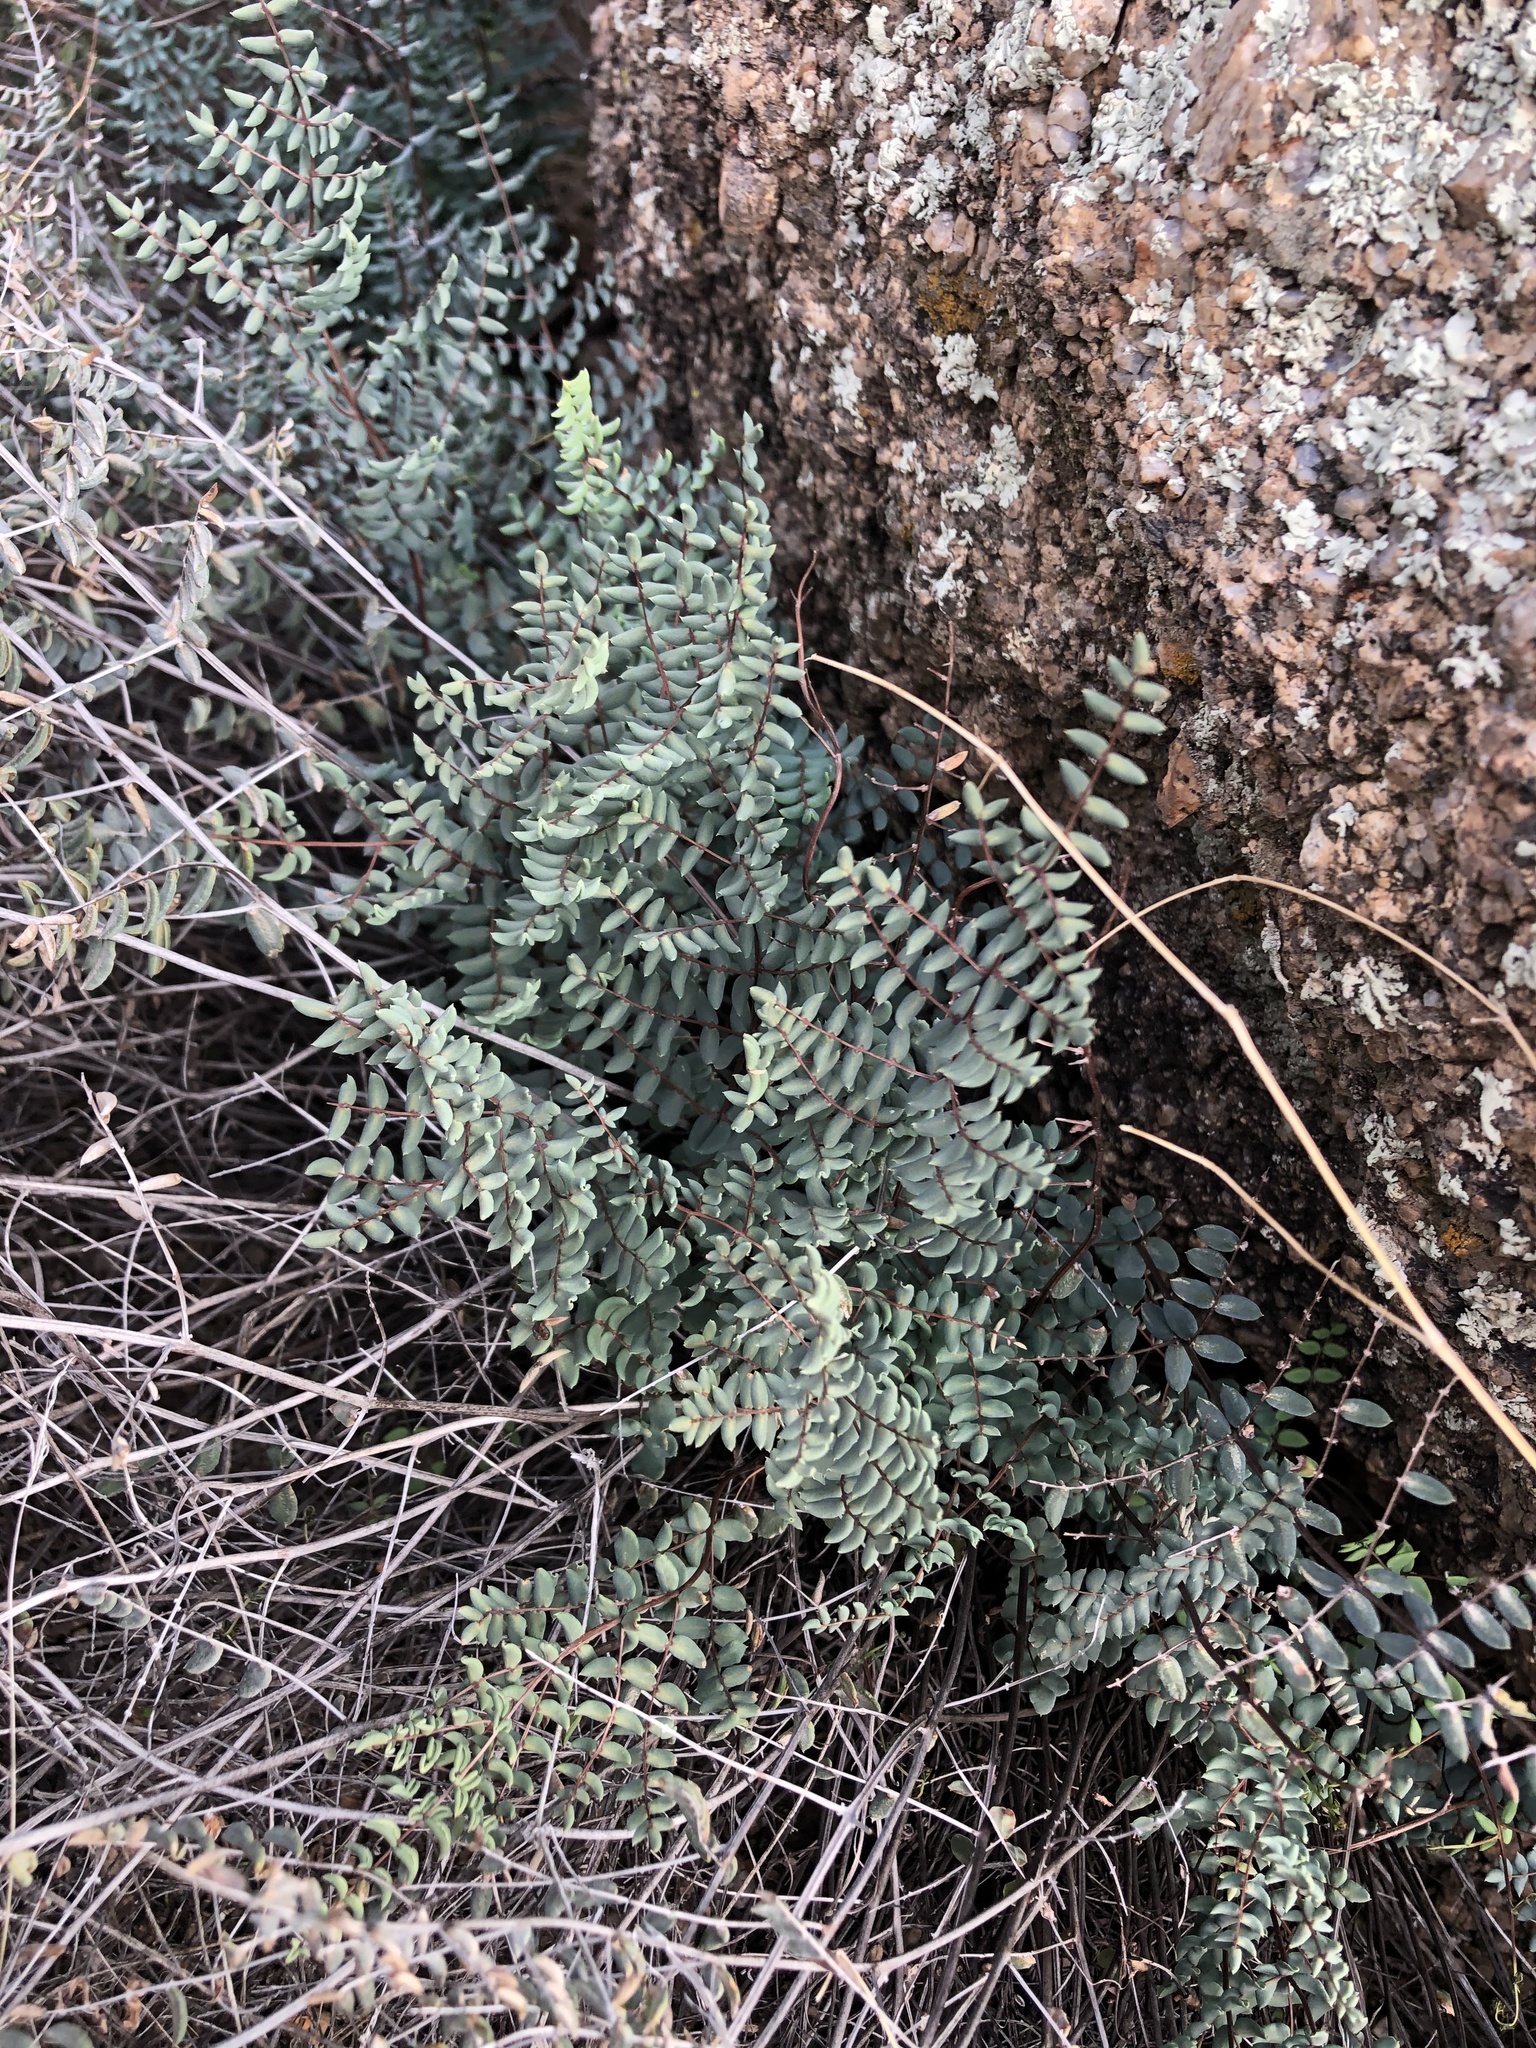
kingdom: Plantae
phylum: Tracheophyta
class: Polypodiopsida
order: Polypodiales
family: Pteridaceae
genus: Pellaea
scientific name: Pellaea truncata
